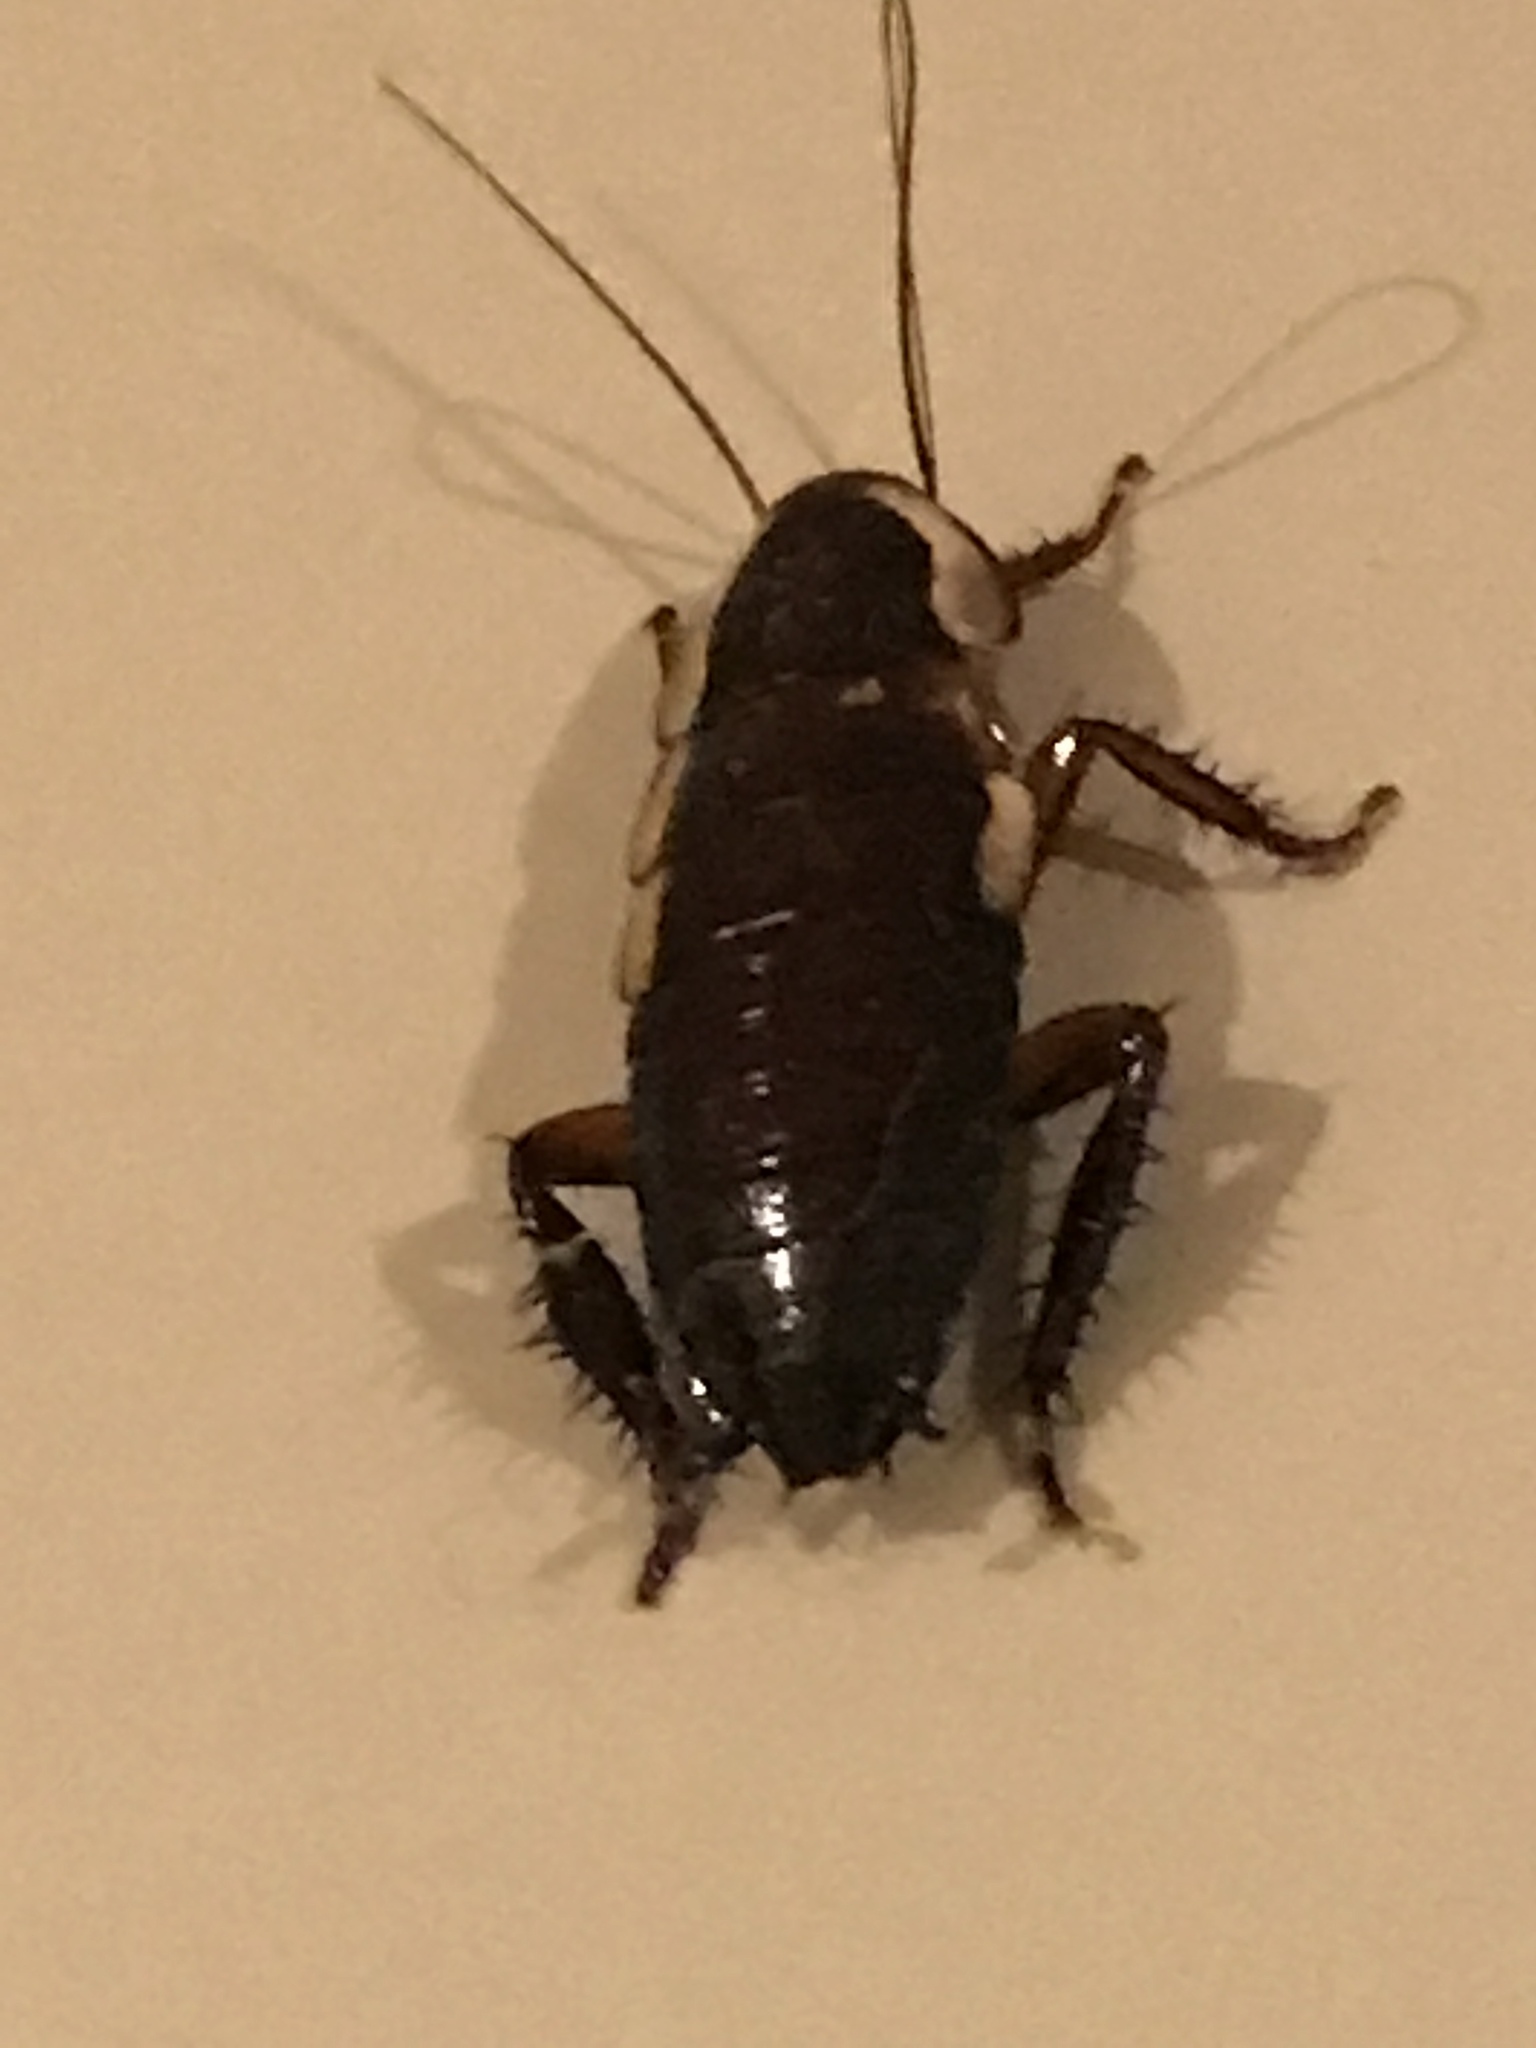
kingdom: Animalia
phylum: Arthropoda
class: Insecta
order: Blattodea
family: Blattidae
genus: Drymaplaneta
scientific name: Drymaplaneta semivitta
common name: Gisborne cockroach
